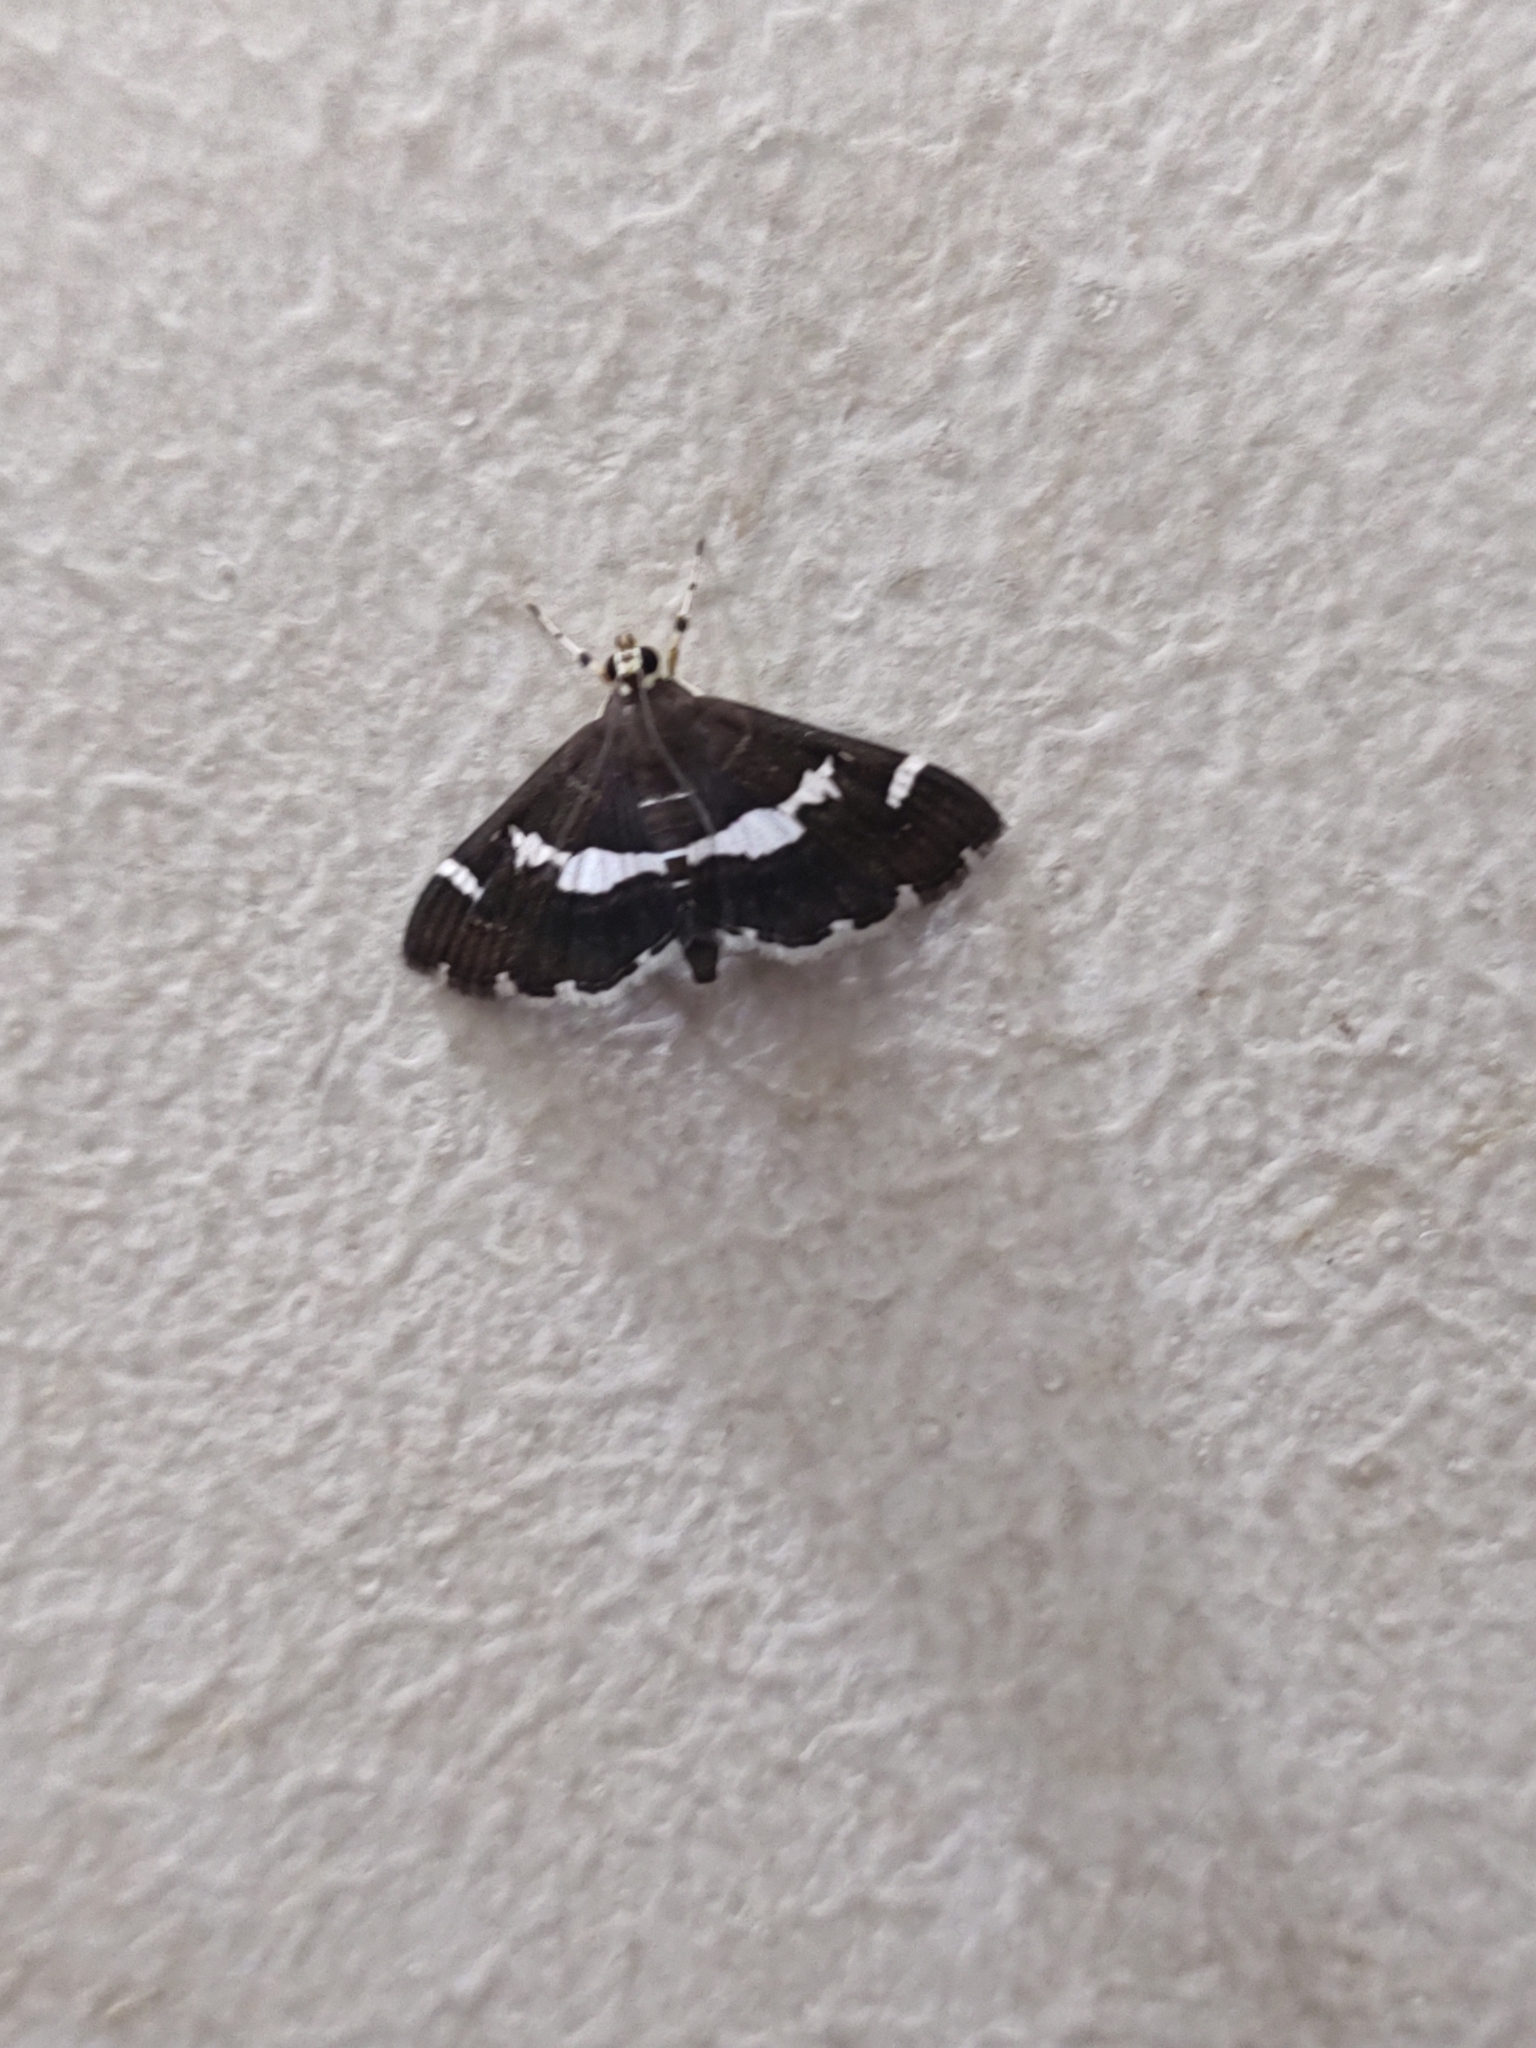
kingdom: Animalia
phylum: Arthropoda
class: Insecta
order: Lepidoptera
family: Crambidae
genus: Spoladea
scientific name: Spoladea recurvalis
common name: Beet webworm moth
